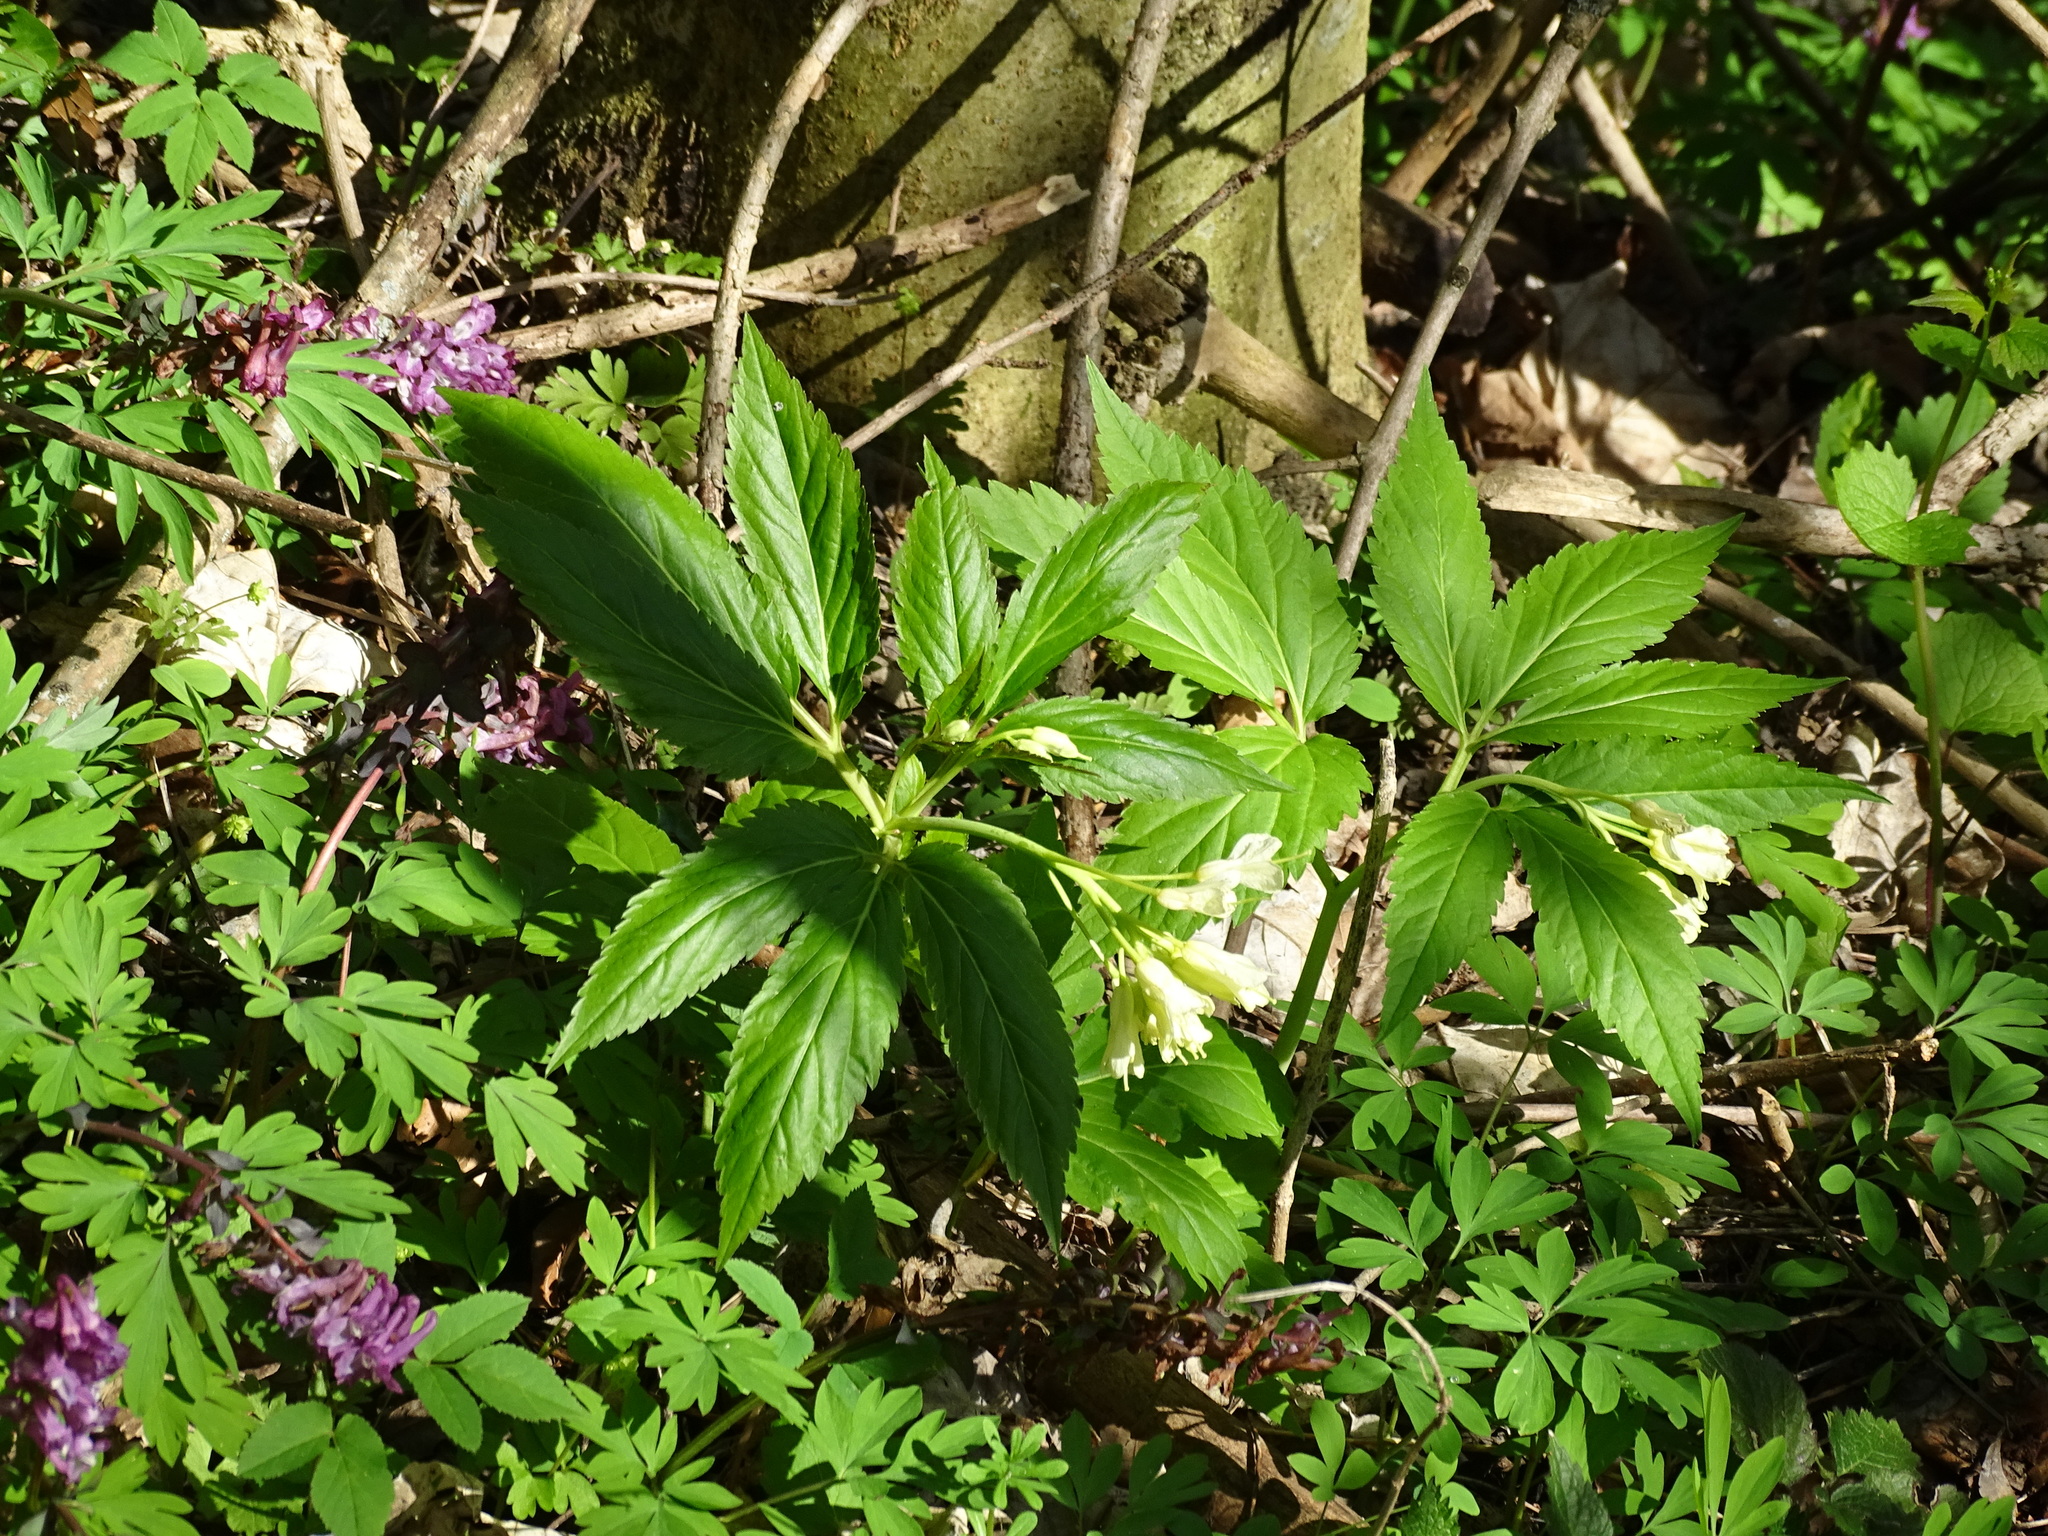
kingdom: Plantae
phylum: Tracheophyta
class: Magnoliopsida
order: Brassicales
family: Brassicaceae
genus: Cardamine
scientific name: Cardamine enneaphyllos
